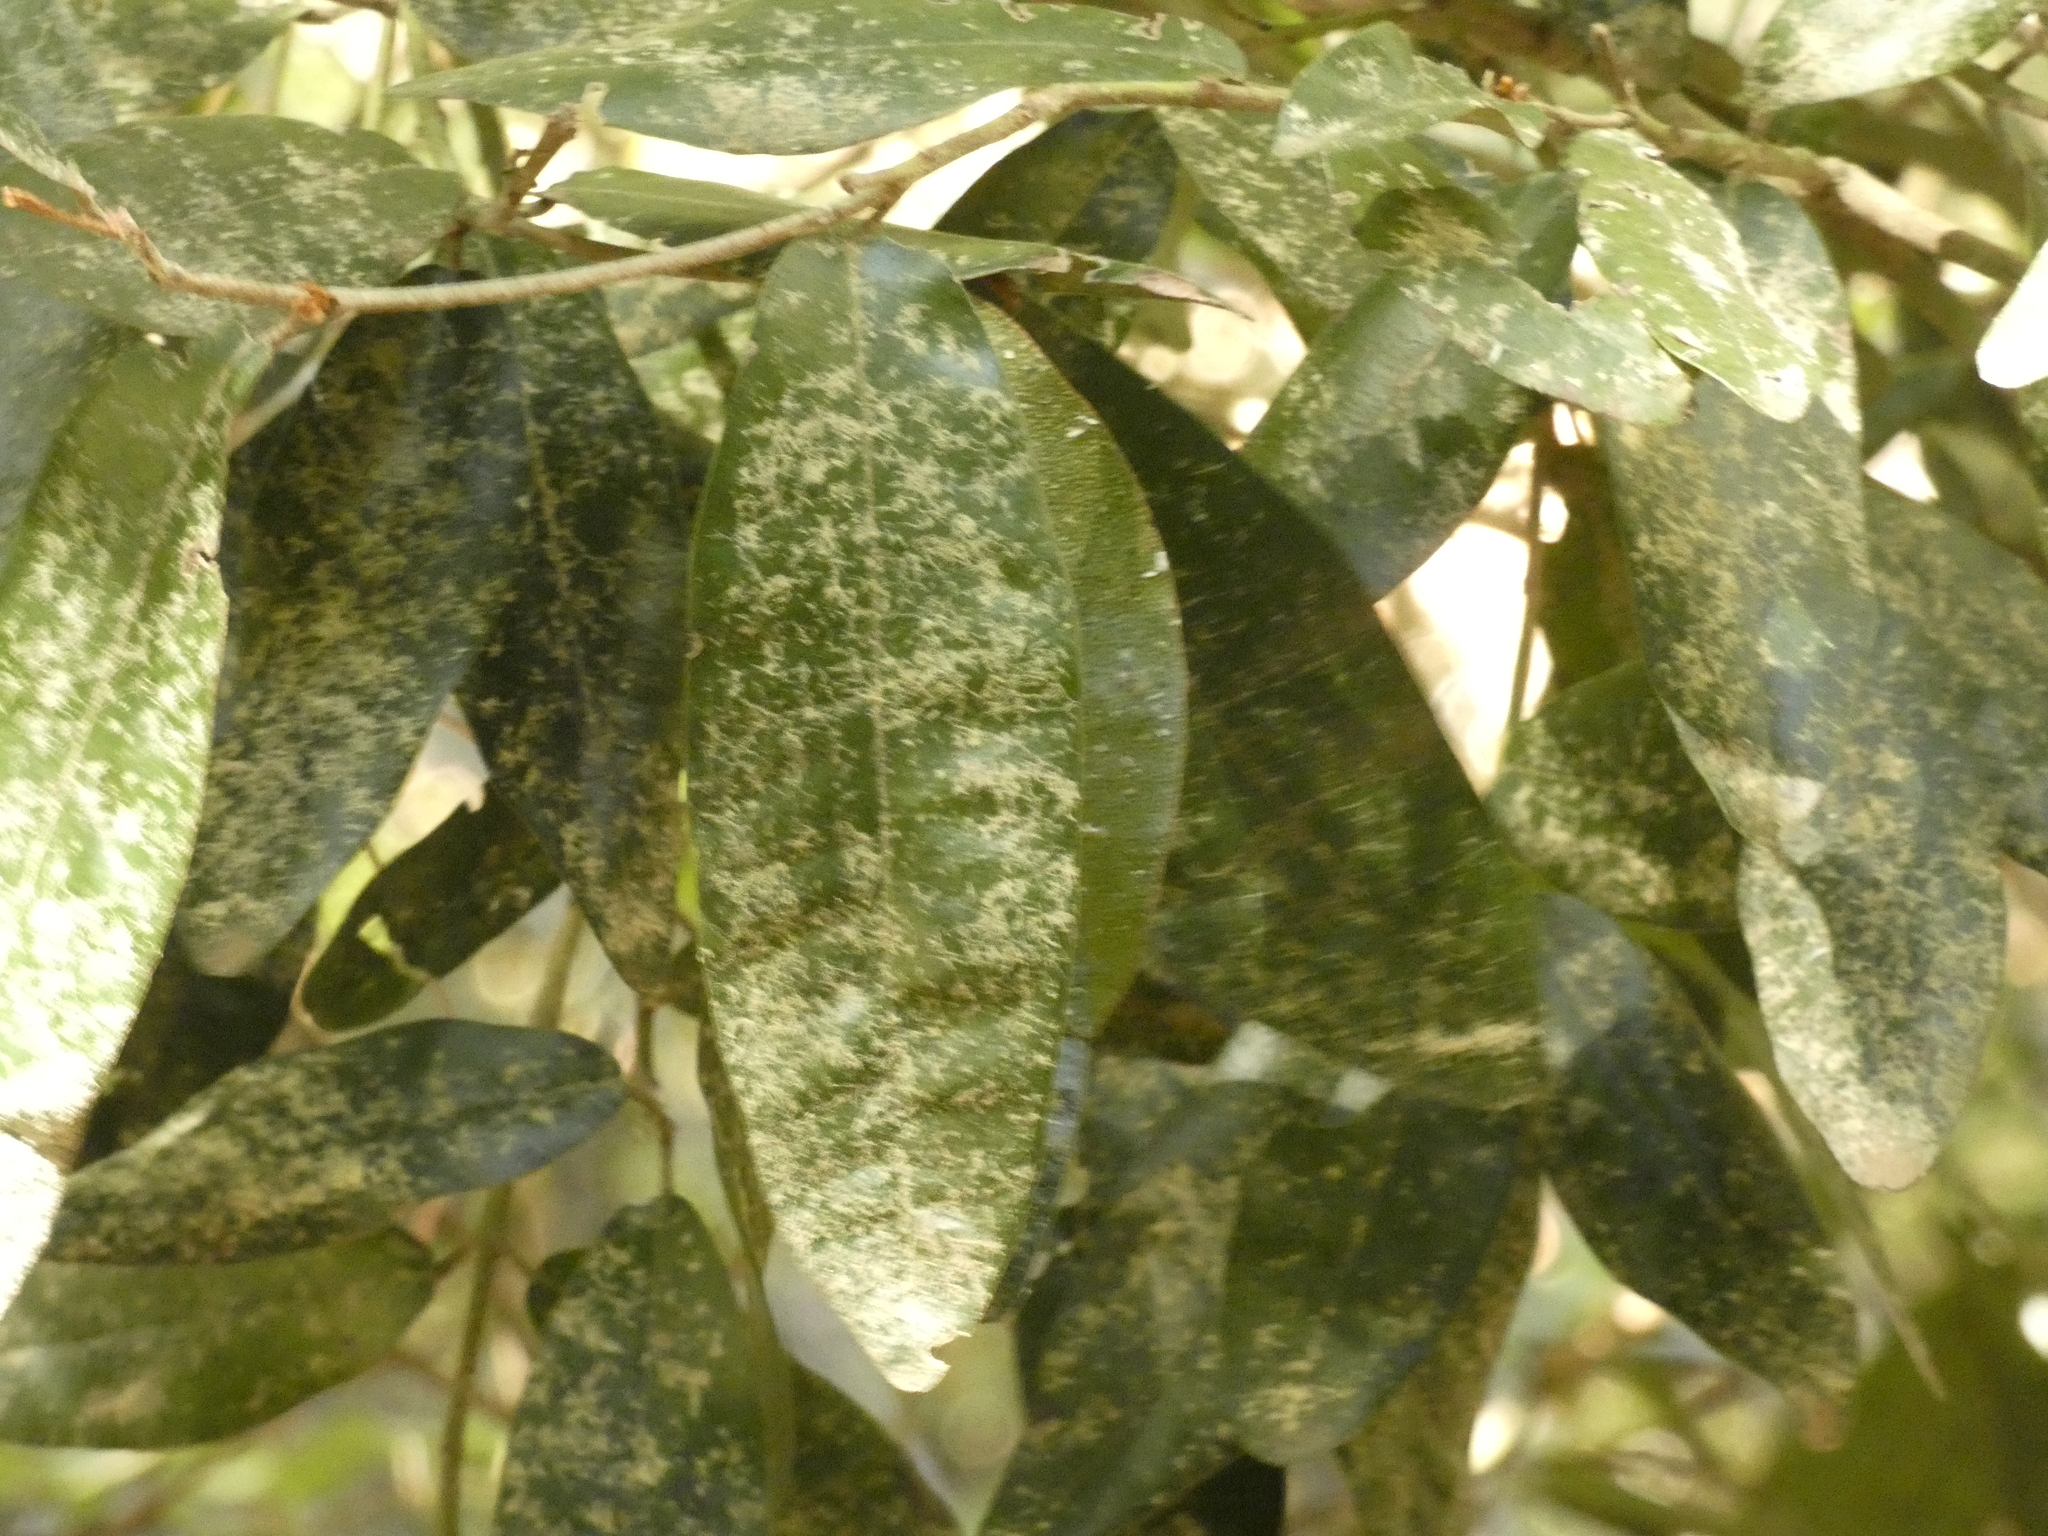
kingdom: Plantae
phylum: Tracheophyta
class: Magnoliopsida
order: Berberidopsidales
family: Aextoxicaceae
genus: Aextoxicon
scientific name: Aextoxicon punctatum
